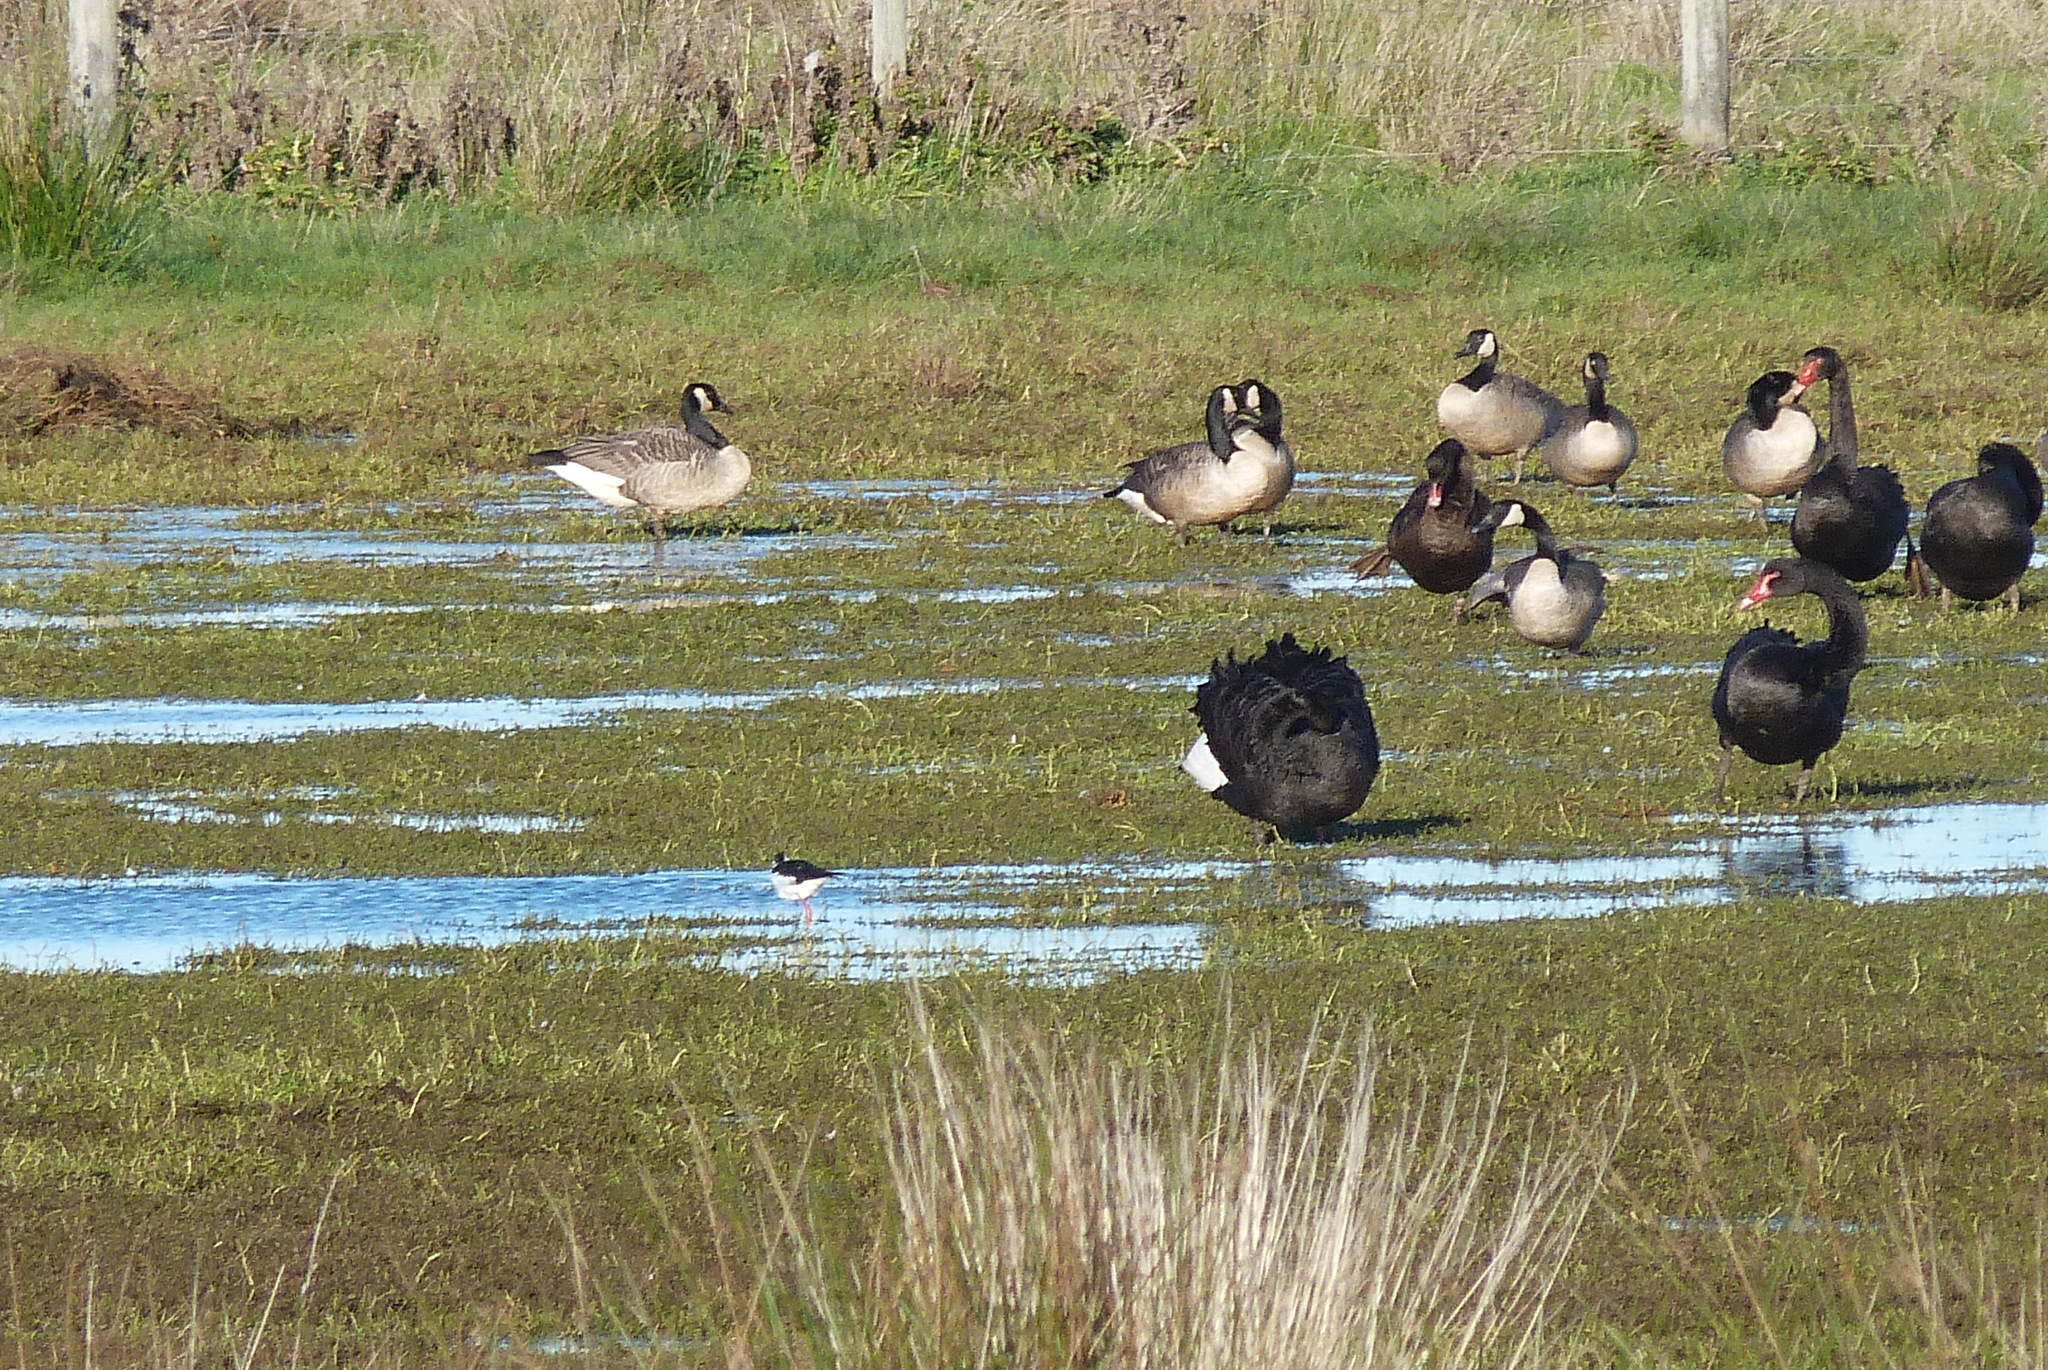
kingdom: Animalia
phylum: Chordata
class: Aves
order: Anseriformes
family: Anatidae
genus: Branta
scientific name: Branta canadensis
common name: Canada goose
